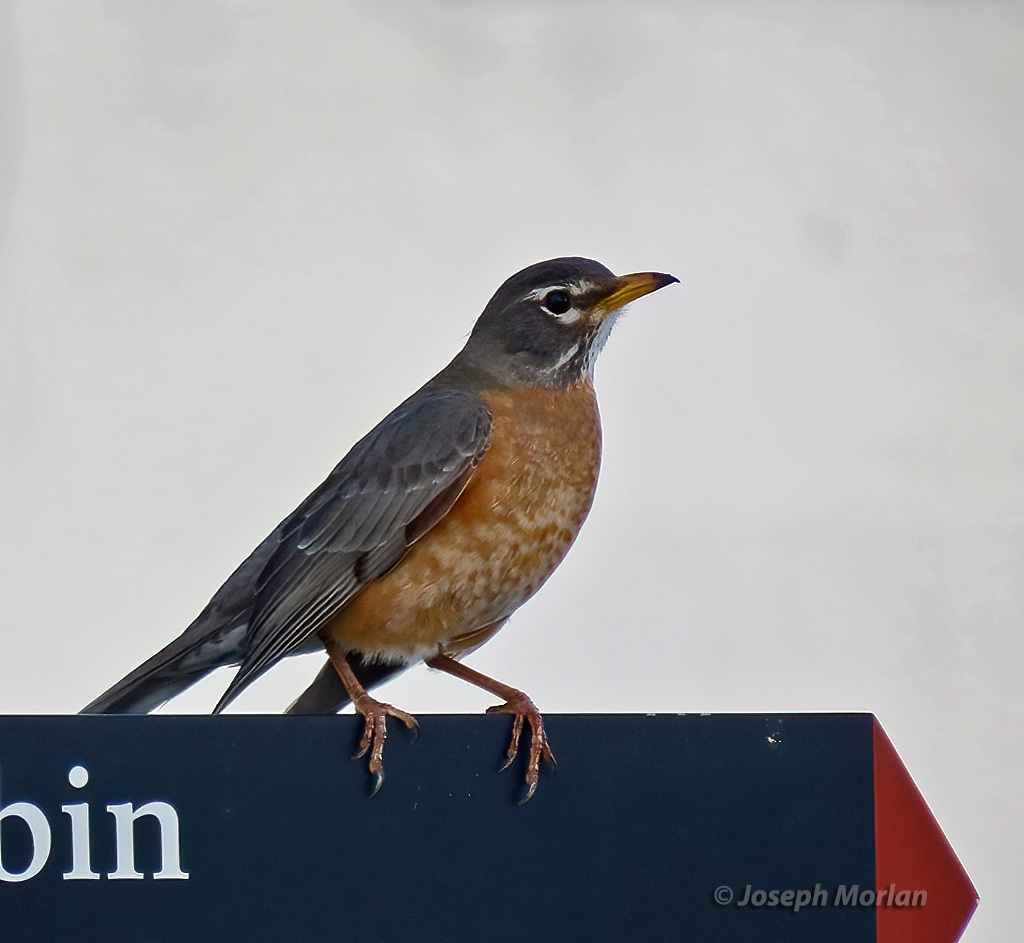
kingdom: Animalia
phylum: Chordata
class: Aves
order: Passeriformes
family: Turdidae
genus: Turdus
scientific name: Turdus migratorius
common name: American robin
